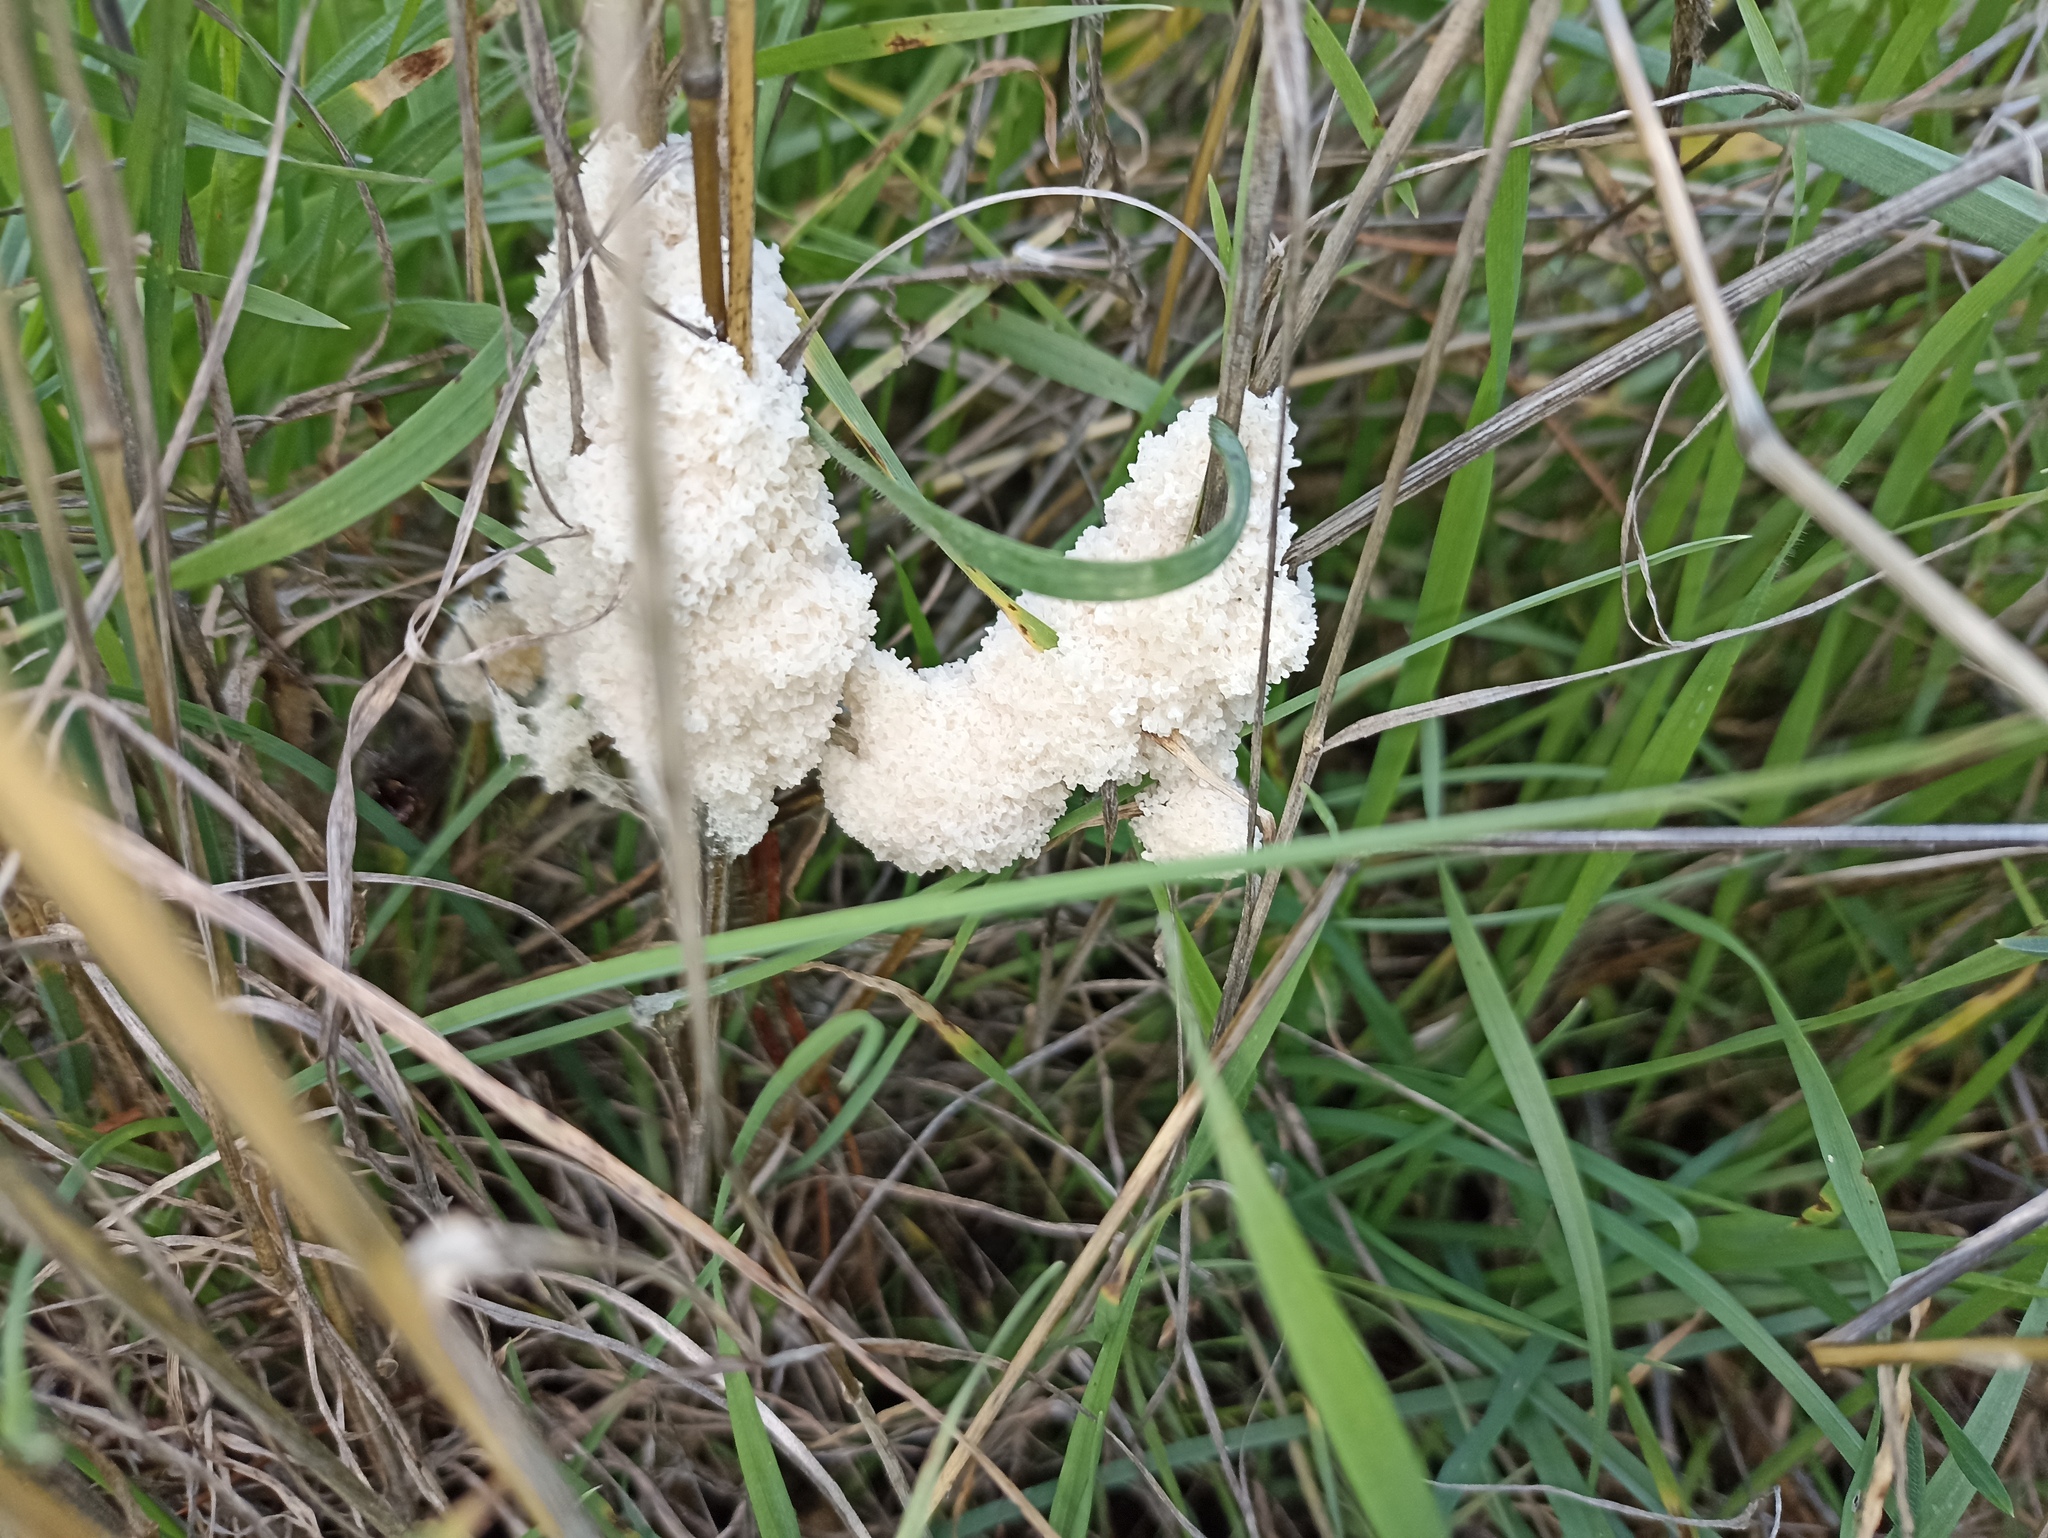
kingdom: Protozoa
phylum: Mycetozoa
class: Myxomycetes
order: Physarales
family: Physaraceae
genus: Didymium
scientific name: Didymium
